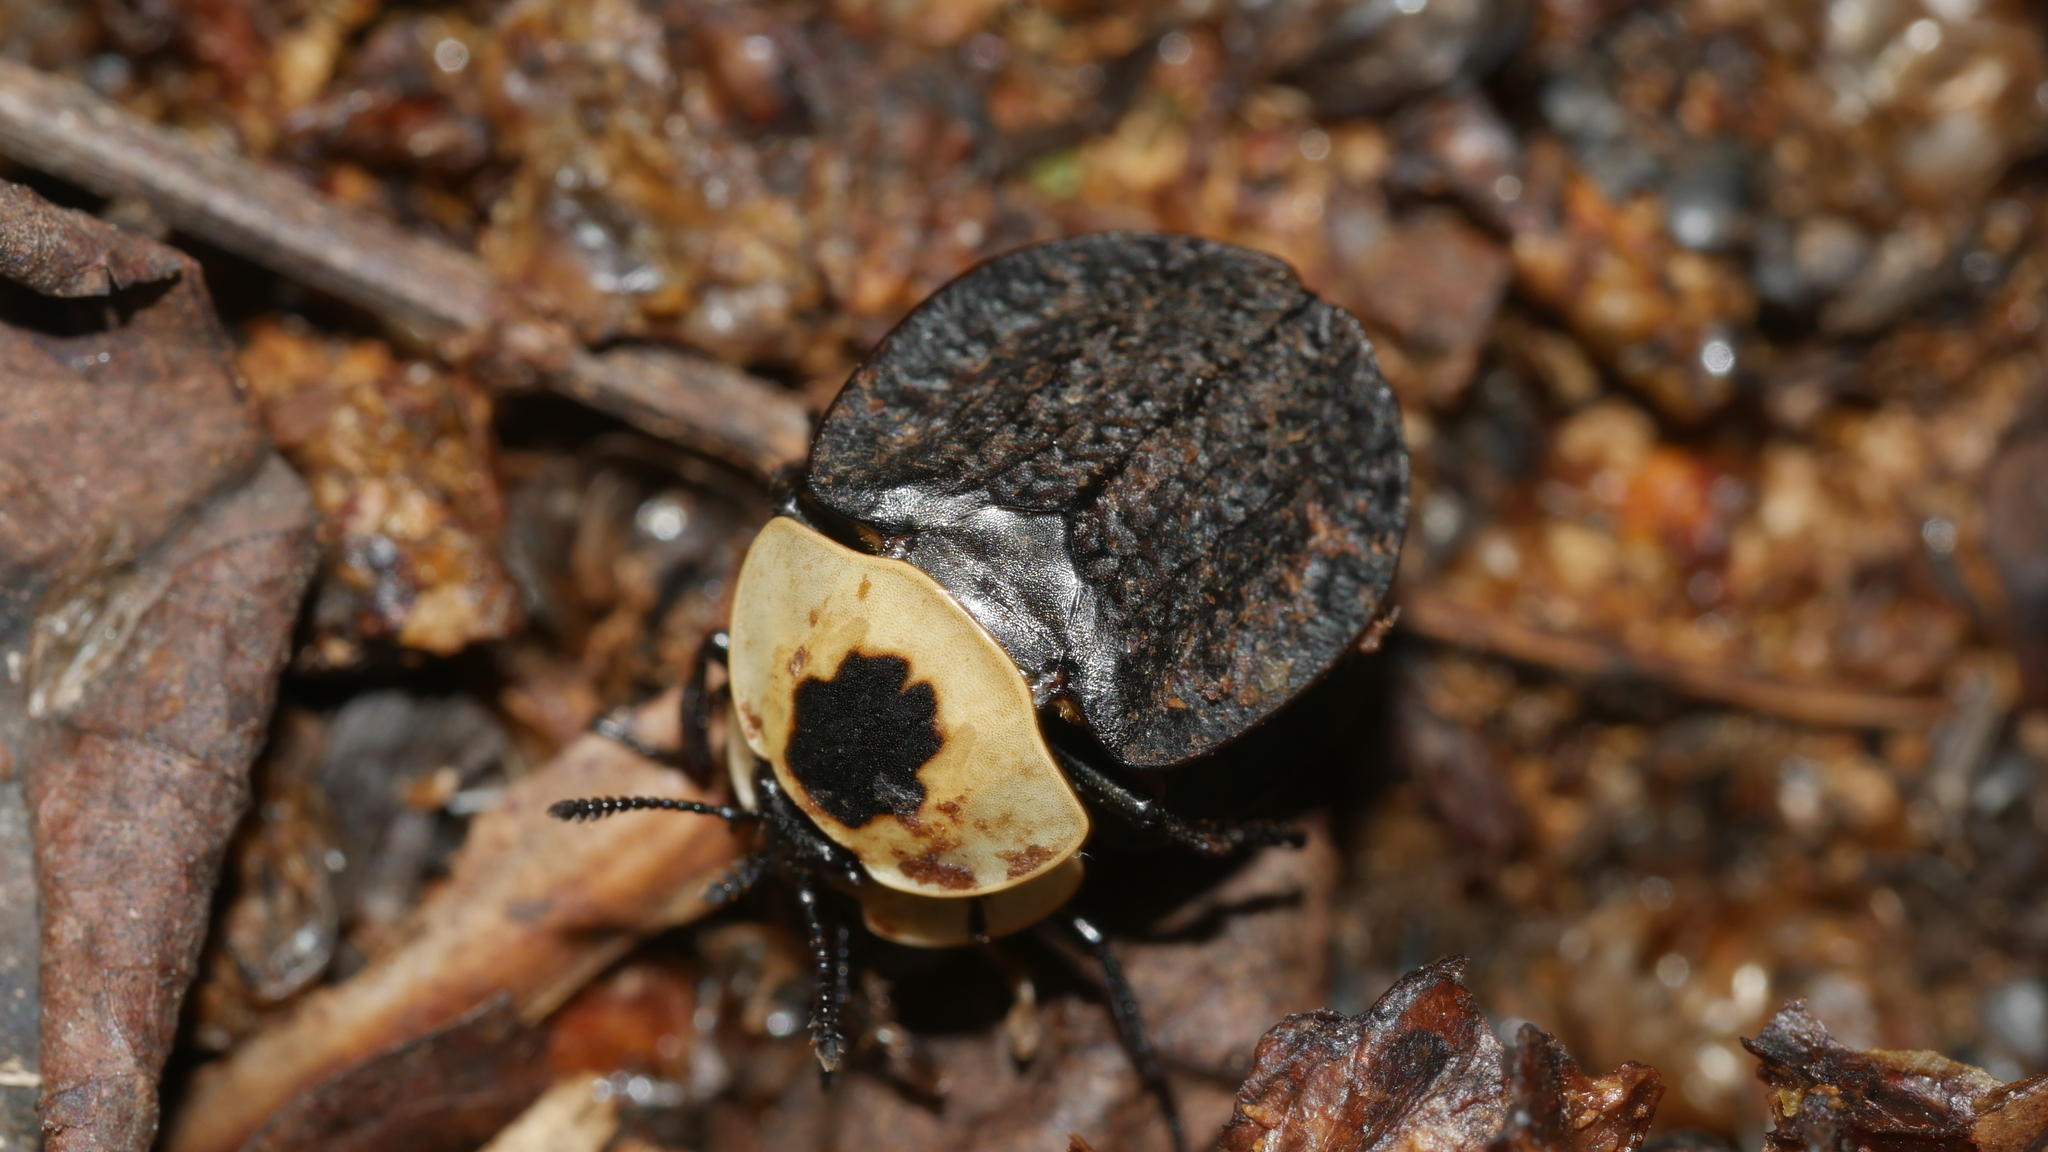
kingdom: Animalia
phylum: Arthropoda
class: Insecta
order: Coleoptera
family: Staphylinidae
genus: Necrophila
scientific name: Necrophila americana
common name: American carrion beetle
